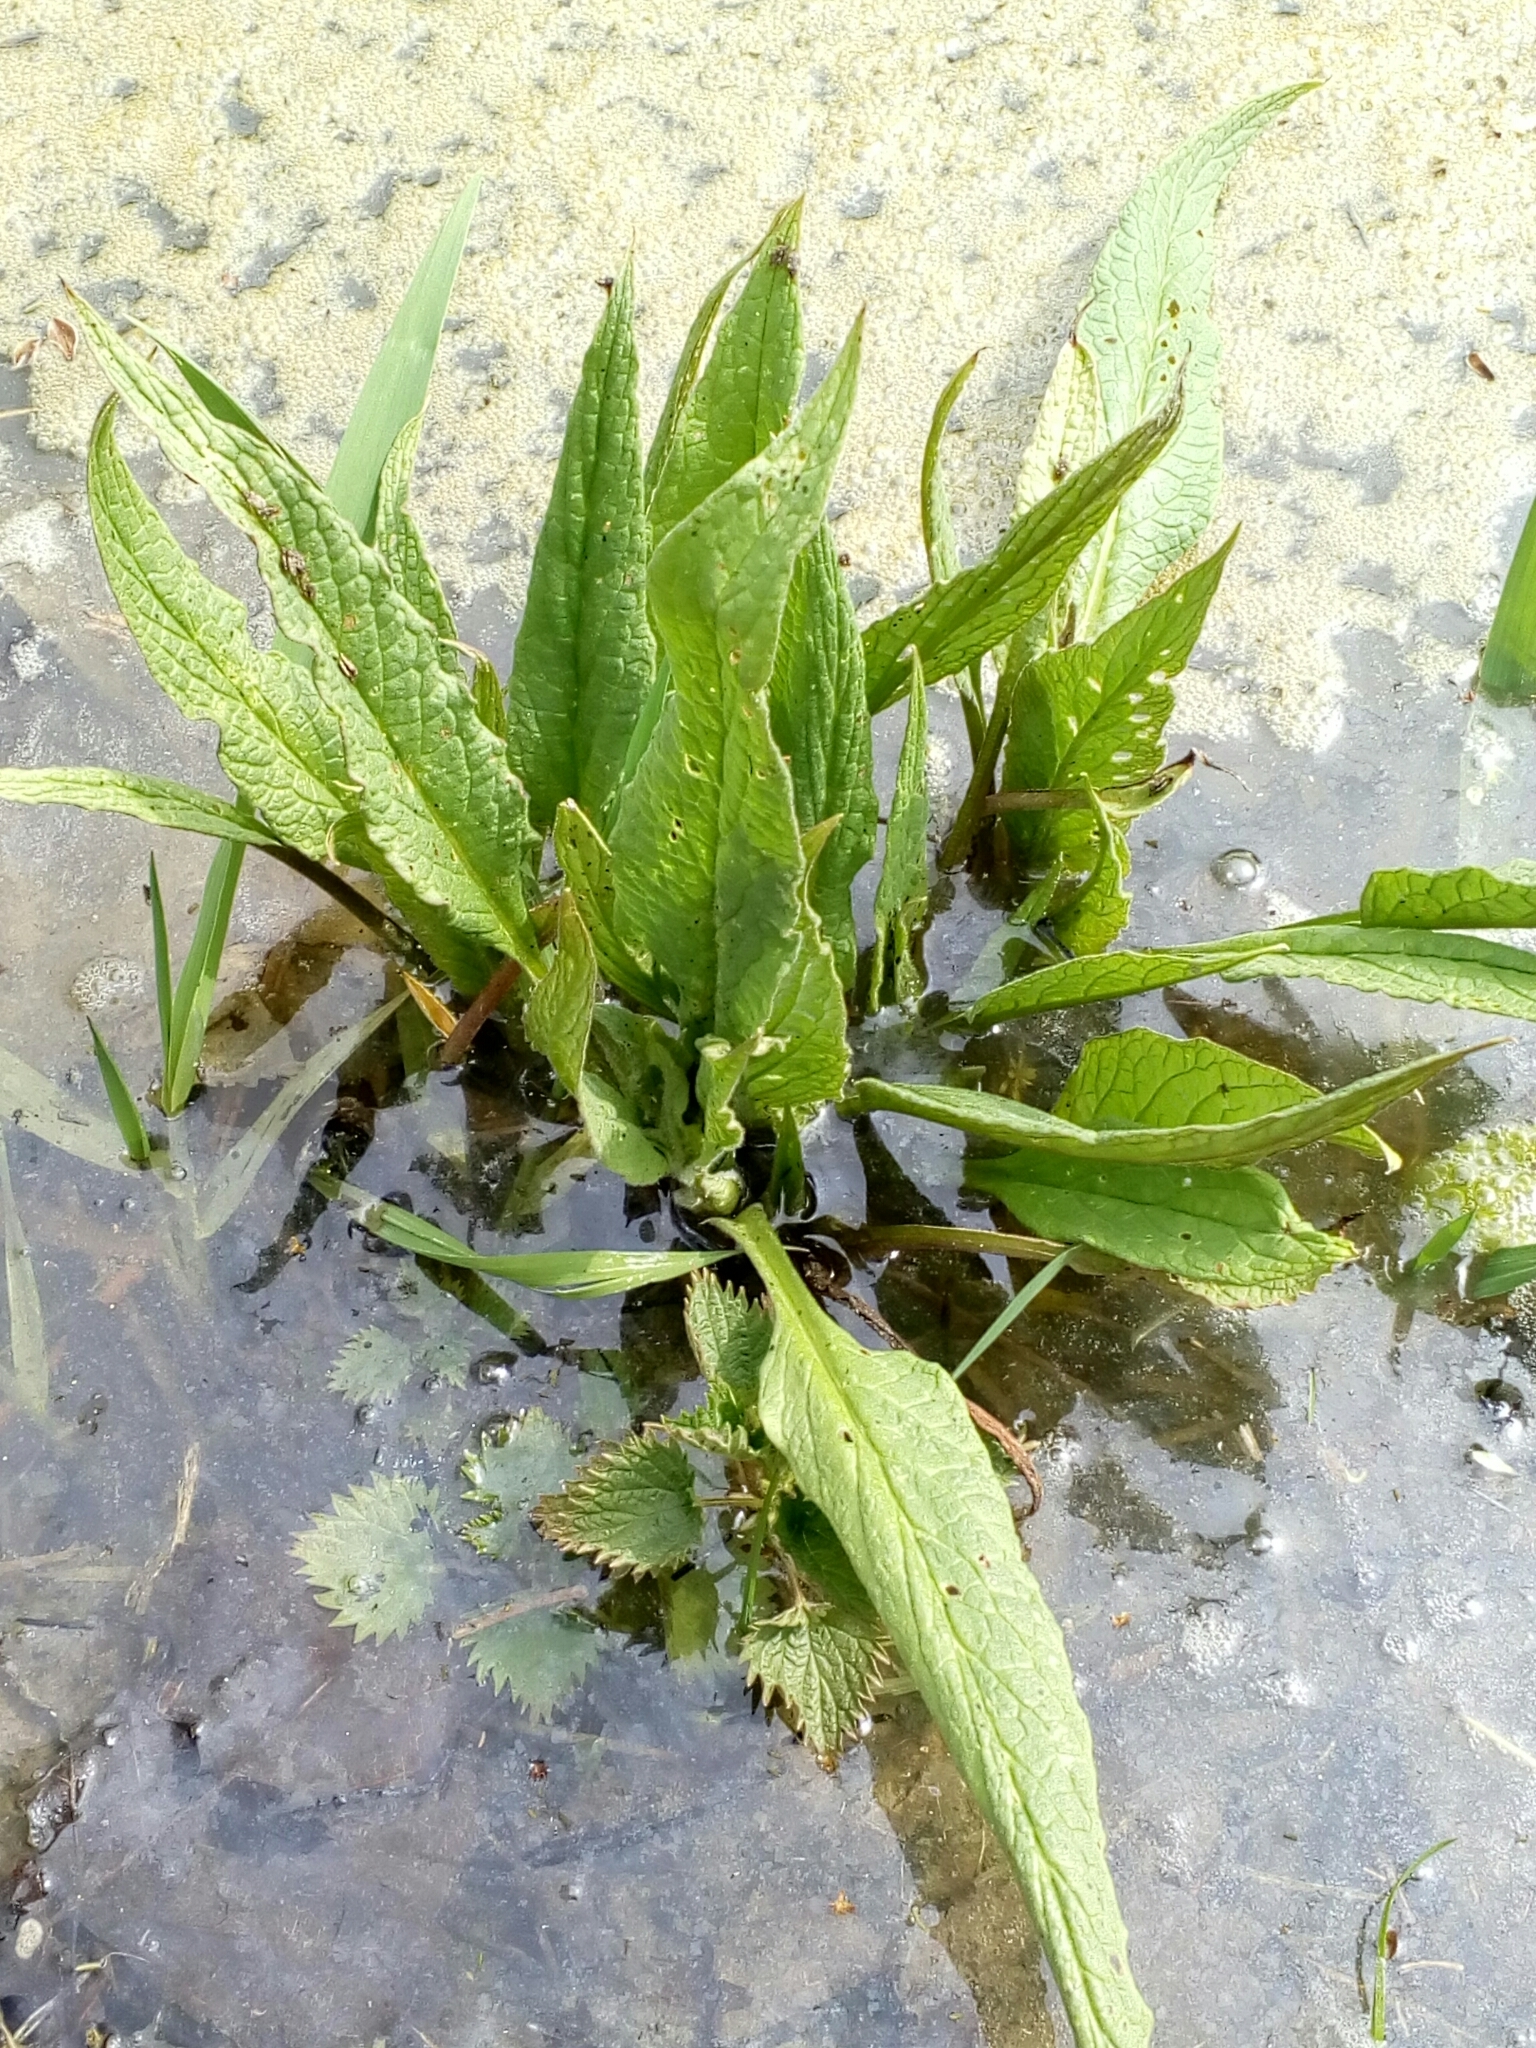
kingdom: Plantae
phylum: Tracheophyta
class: Magnoliopsida
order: Boraginales
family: Boraginaceae
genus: Symphytum
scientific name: Symphytum officinale
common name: Common comfrey
